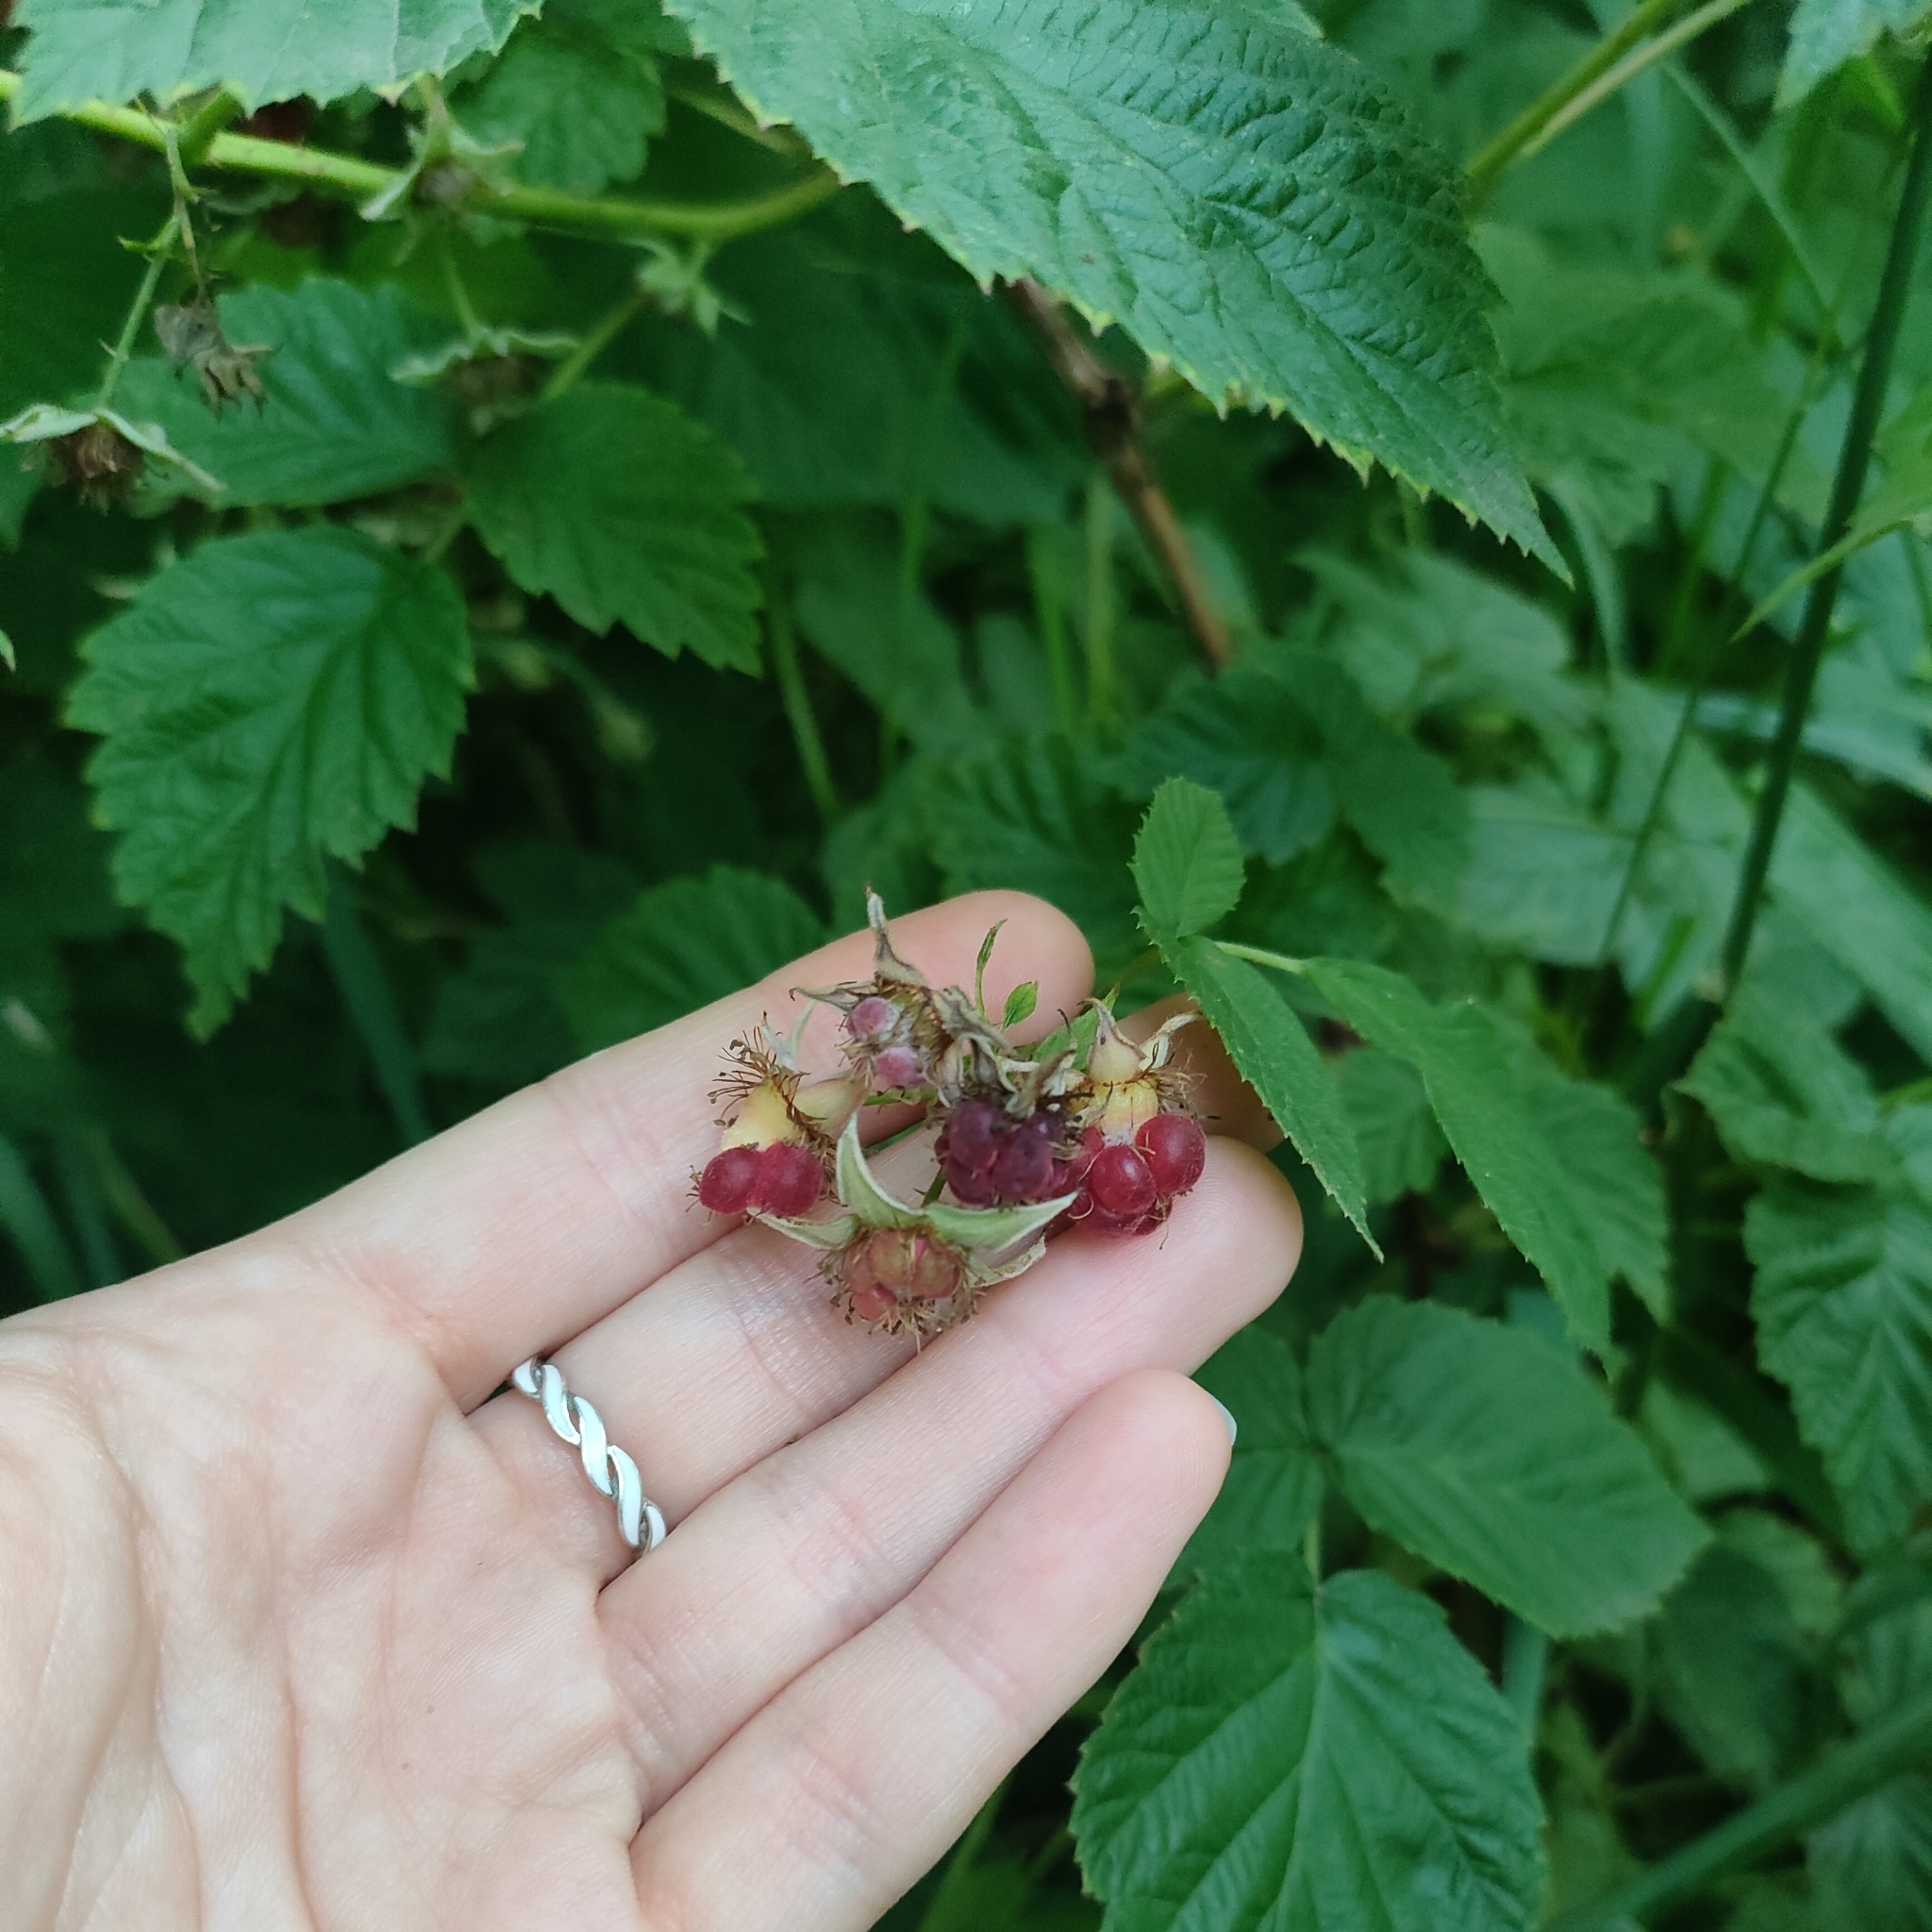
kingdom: Plantae
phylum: Tracheophyta
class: Magnoliopsida
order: Rosales
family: Rosaceae
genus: Rubus
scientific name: Rubus idaeus
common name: Raspberry
